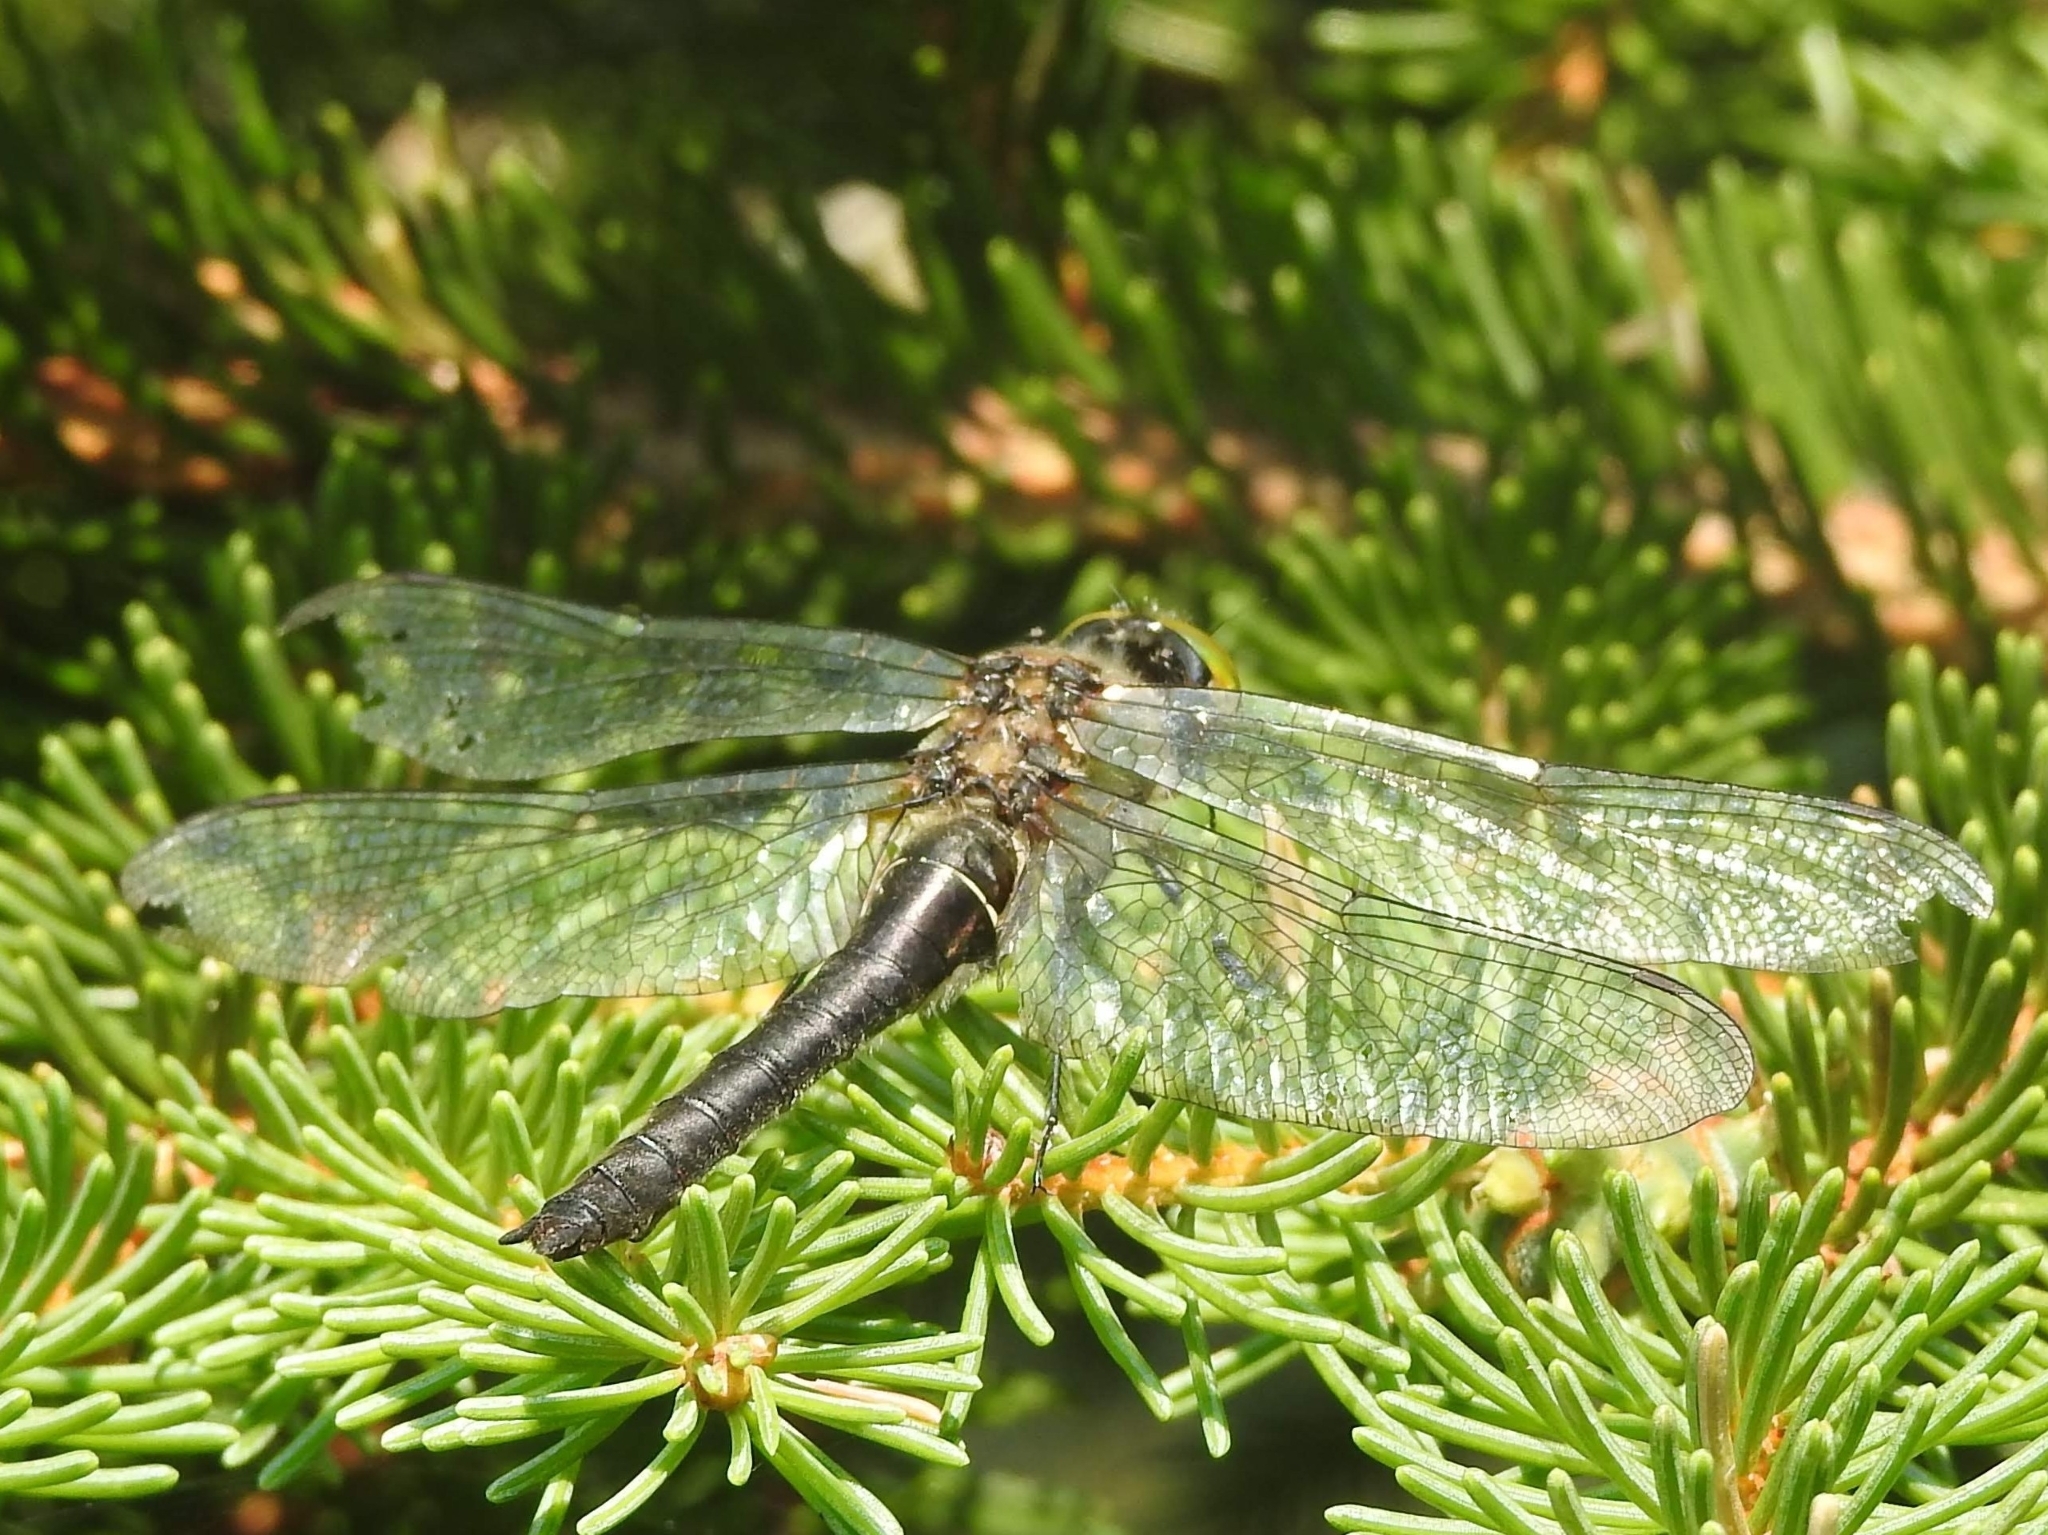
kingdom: Animalia
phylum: Arthropoda
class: Insecta
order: Odonata
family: Corduliidae
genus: Cordulia
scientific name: Cordulia aenea
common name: Downy emerald
